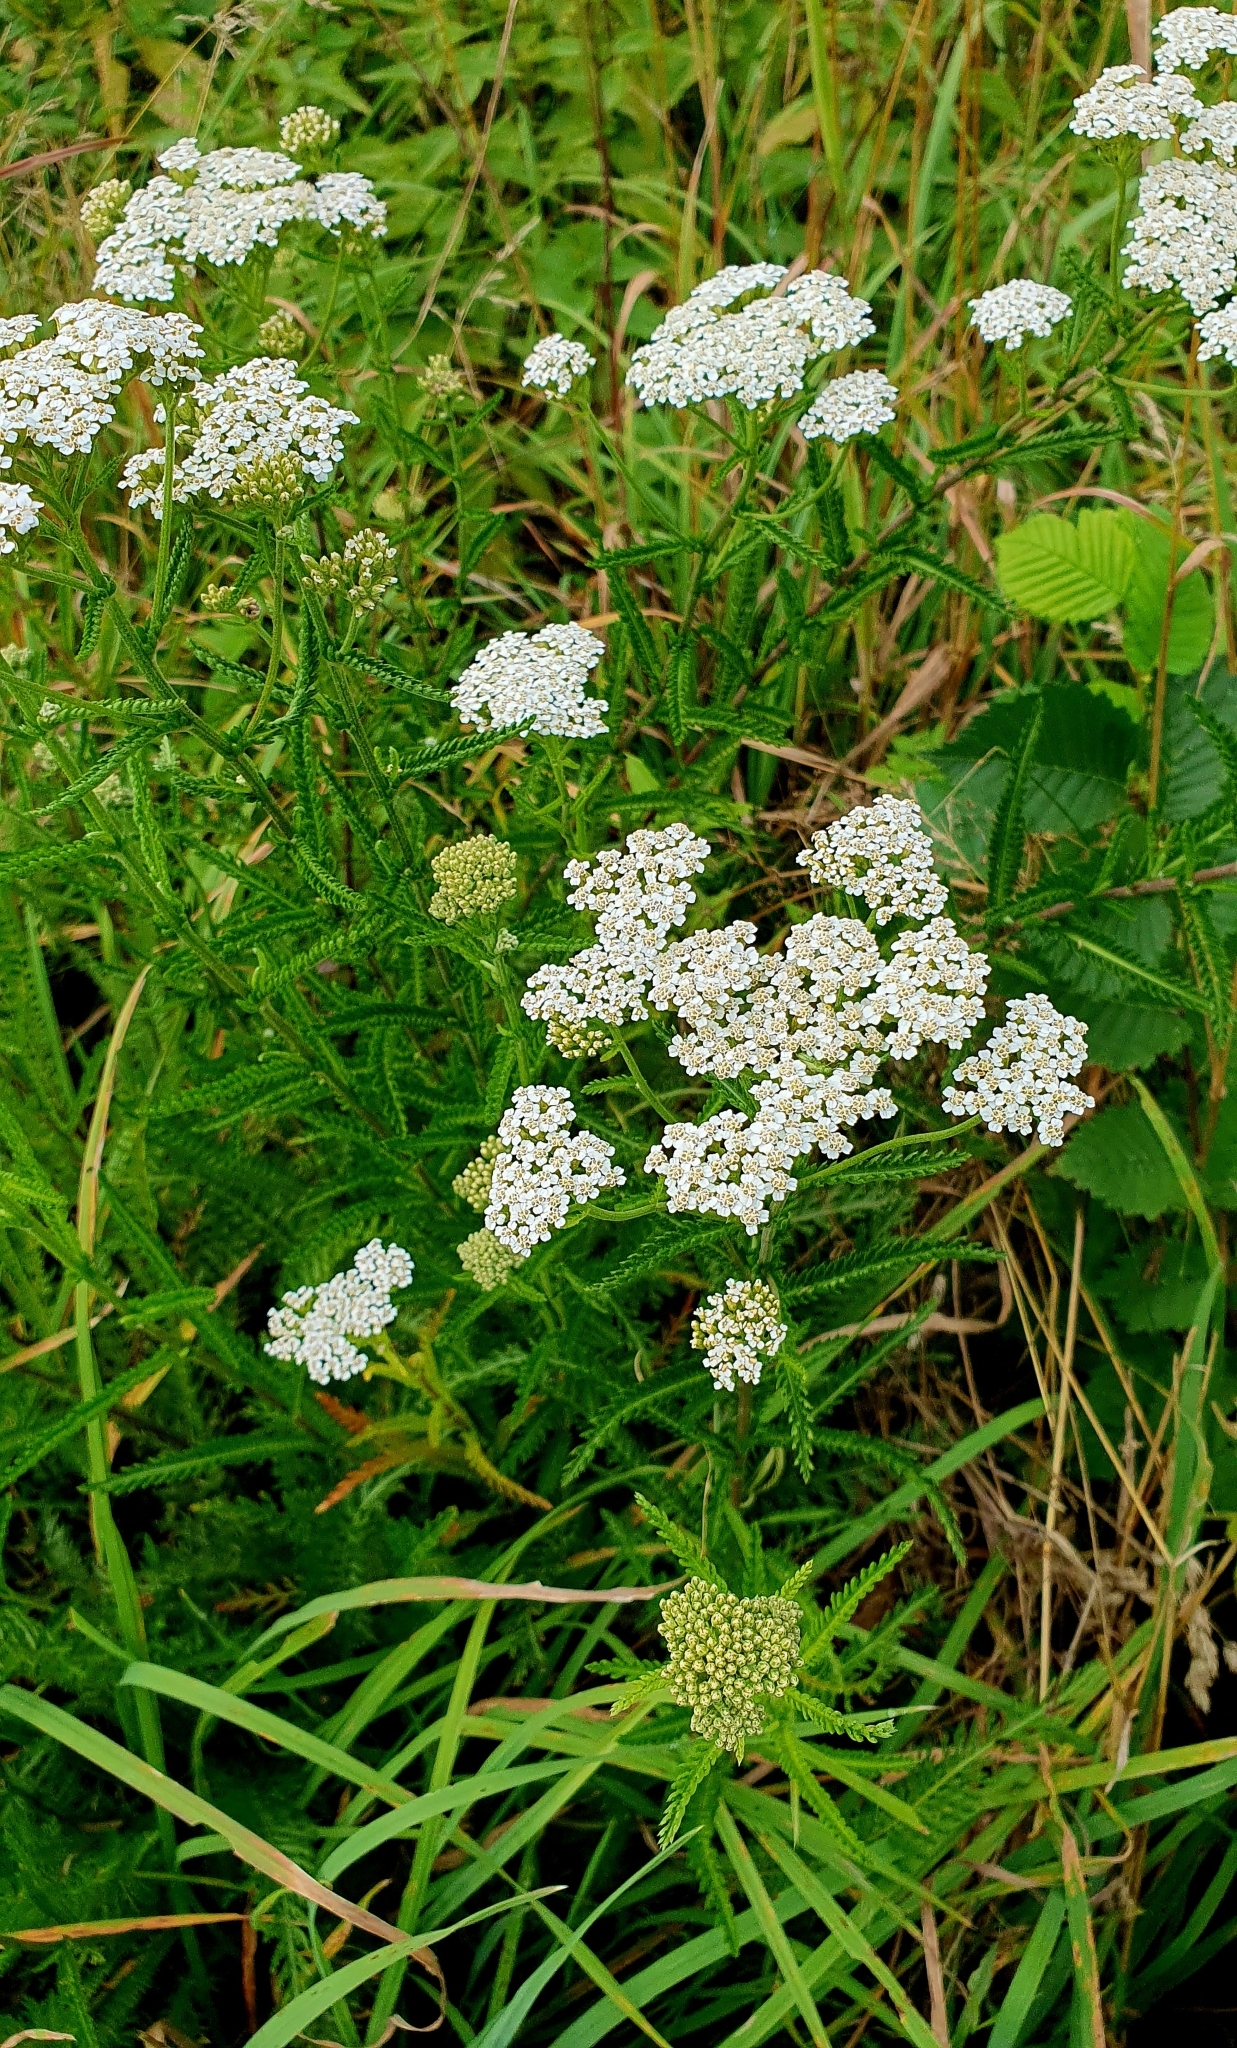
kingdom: Plantae
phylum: Tracheophyta
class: Magnoliopsida
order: Asterales
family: Asteraceae
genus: Achillea
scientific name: Achillea millefolium
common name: Yarrow
